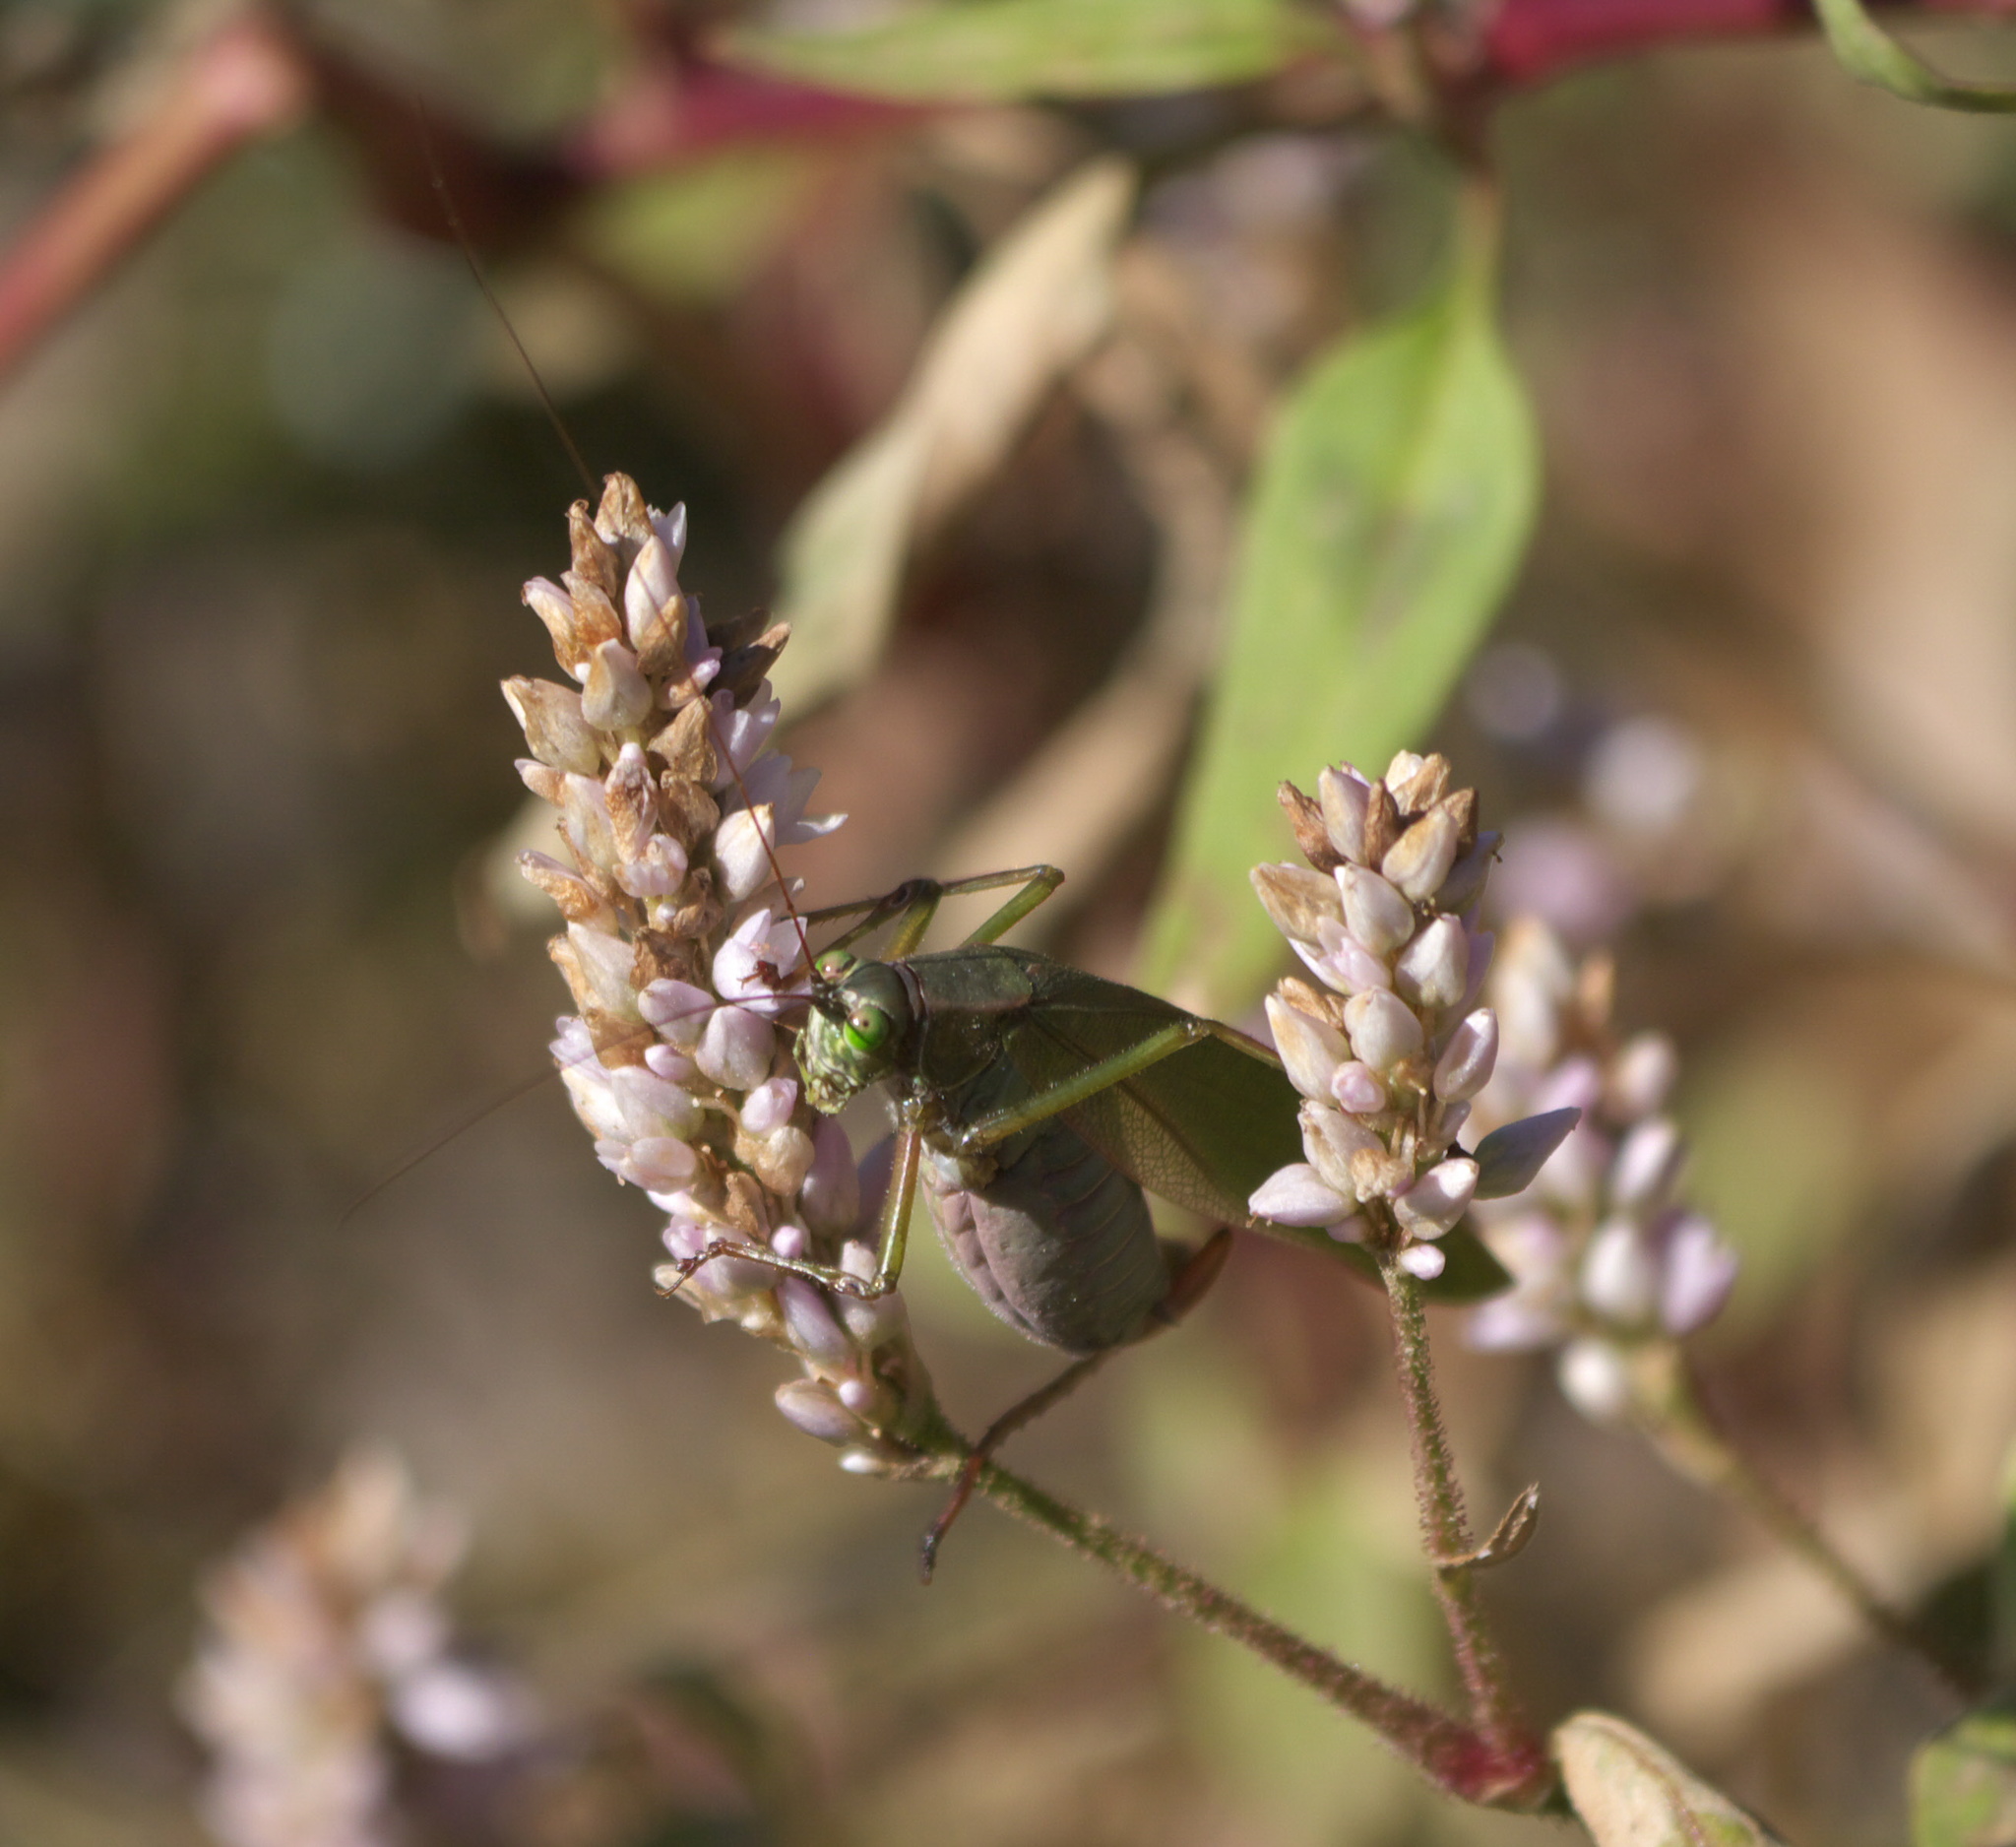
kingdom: Animalia
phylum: Arthropoda
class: Insecta
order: Orthoptera
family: Tettigoniidae
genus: Scudderia
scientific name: Scudderia furcata
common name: Fork-tailed bush katydid
